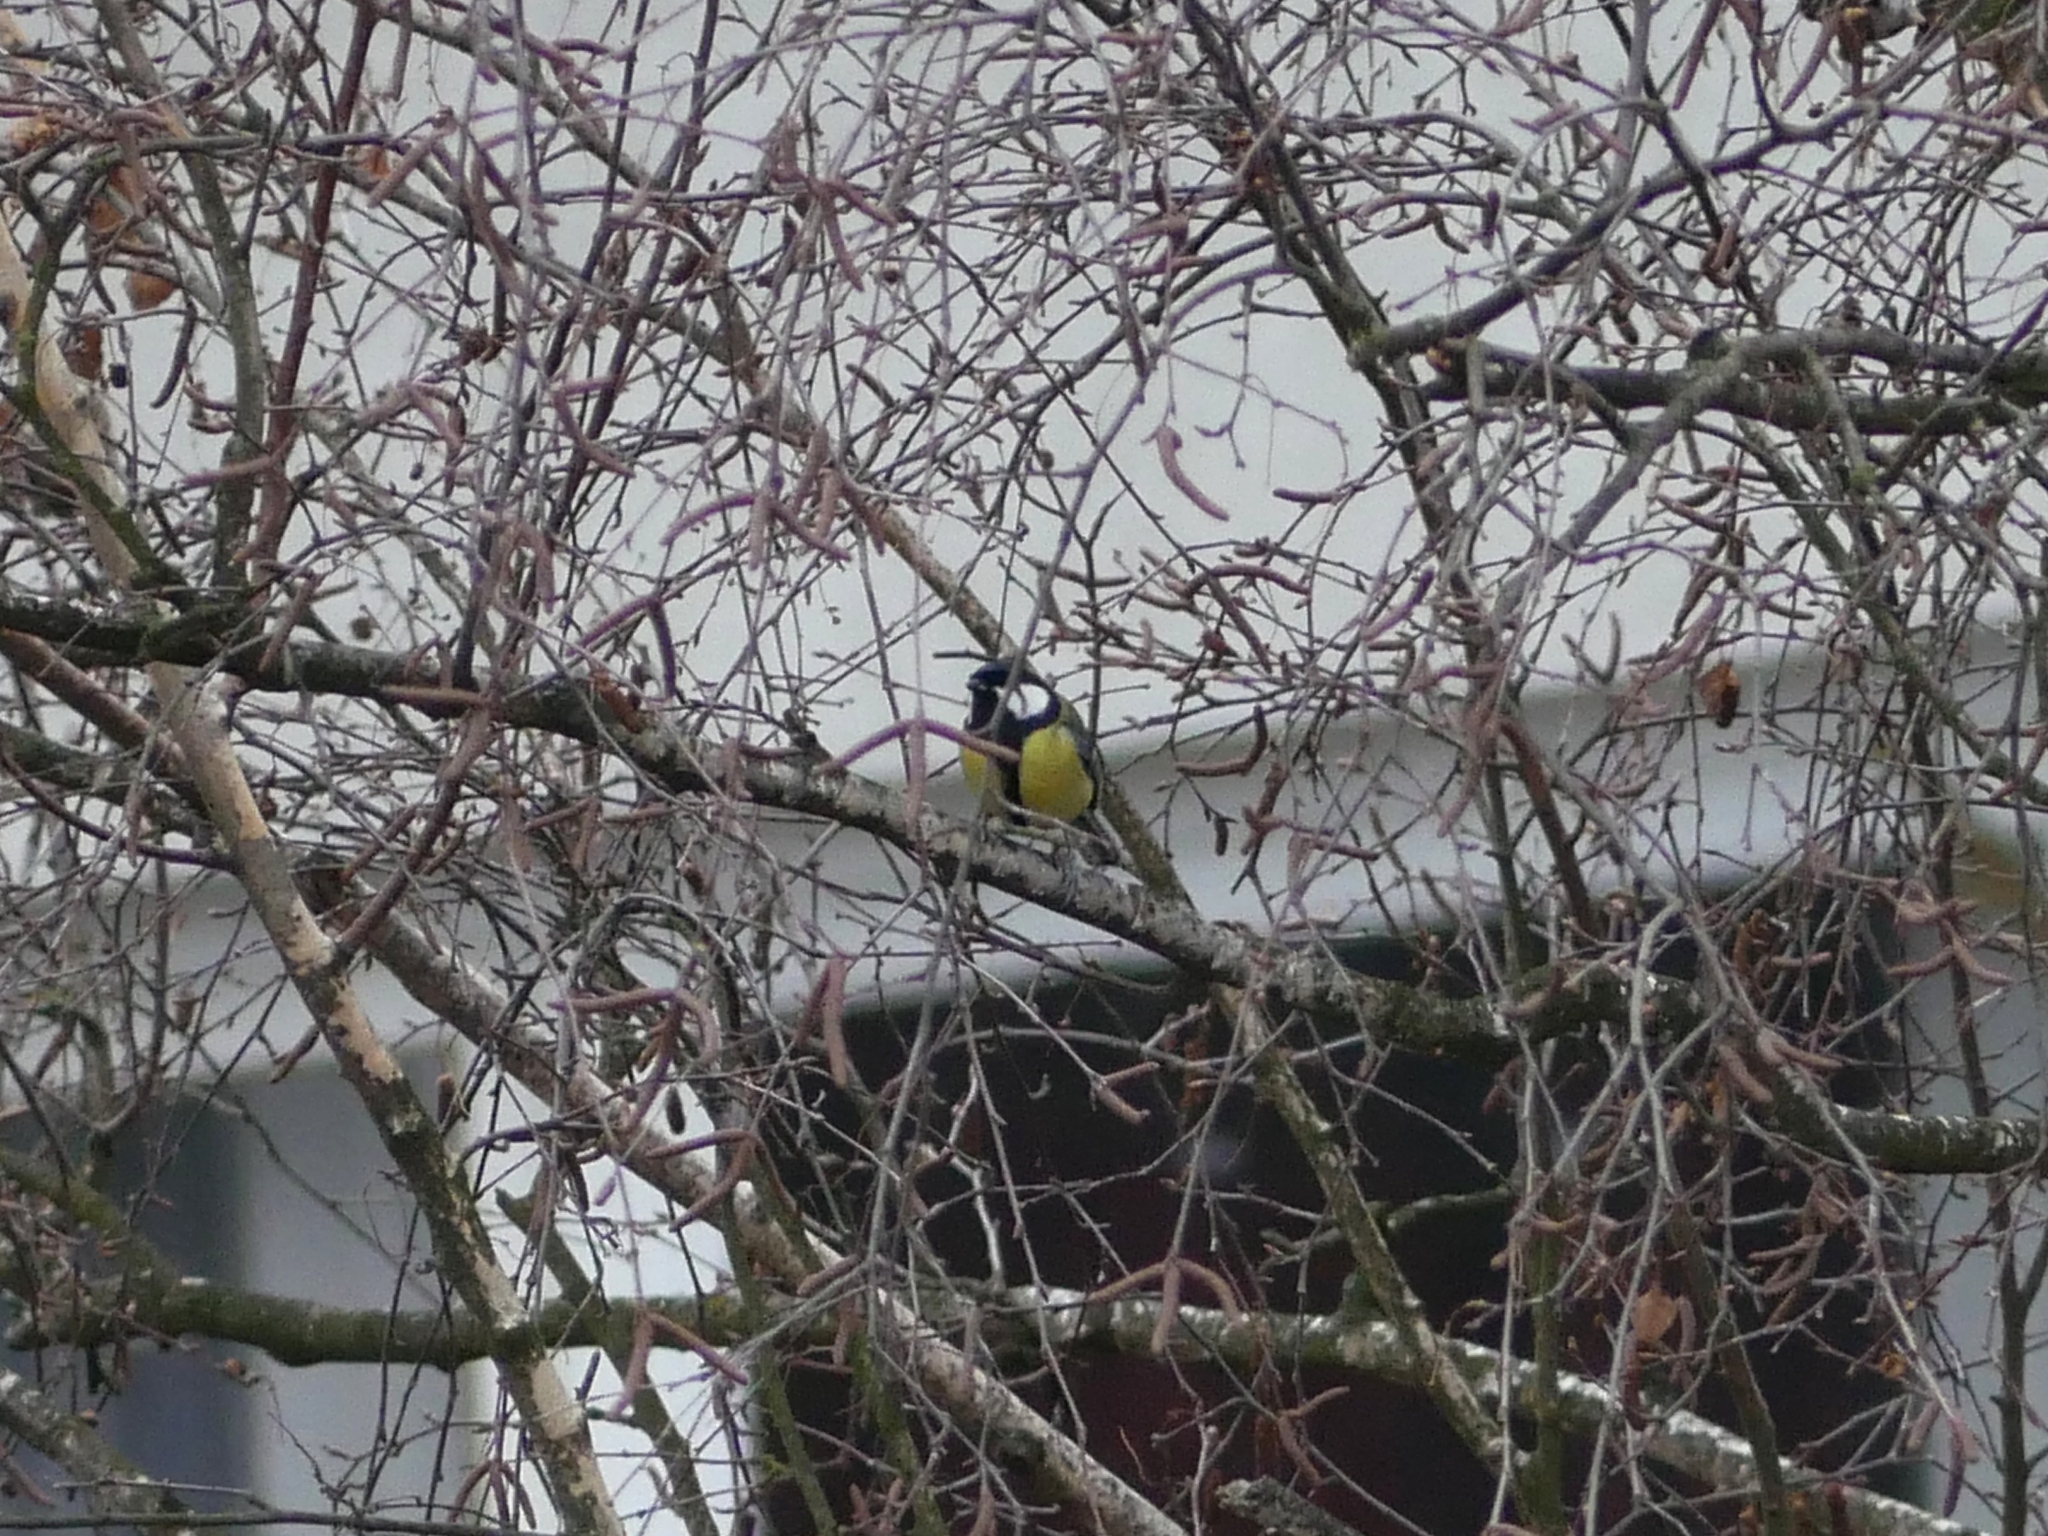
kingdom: Animalia
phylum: Chordata
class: Aves
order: Passeriformes
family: Paridae
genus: Parus
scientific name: Parus major
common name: Great tit
